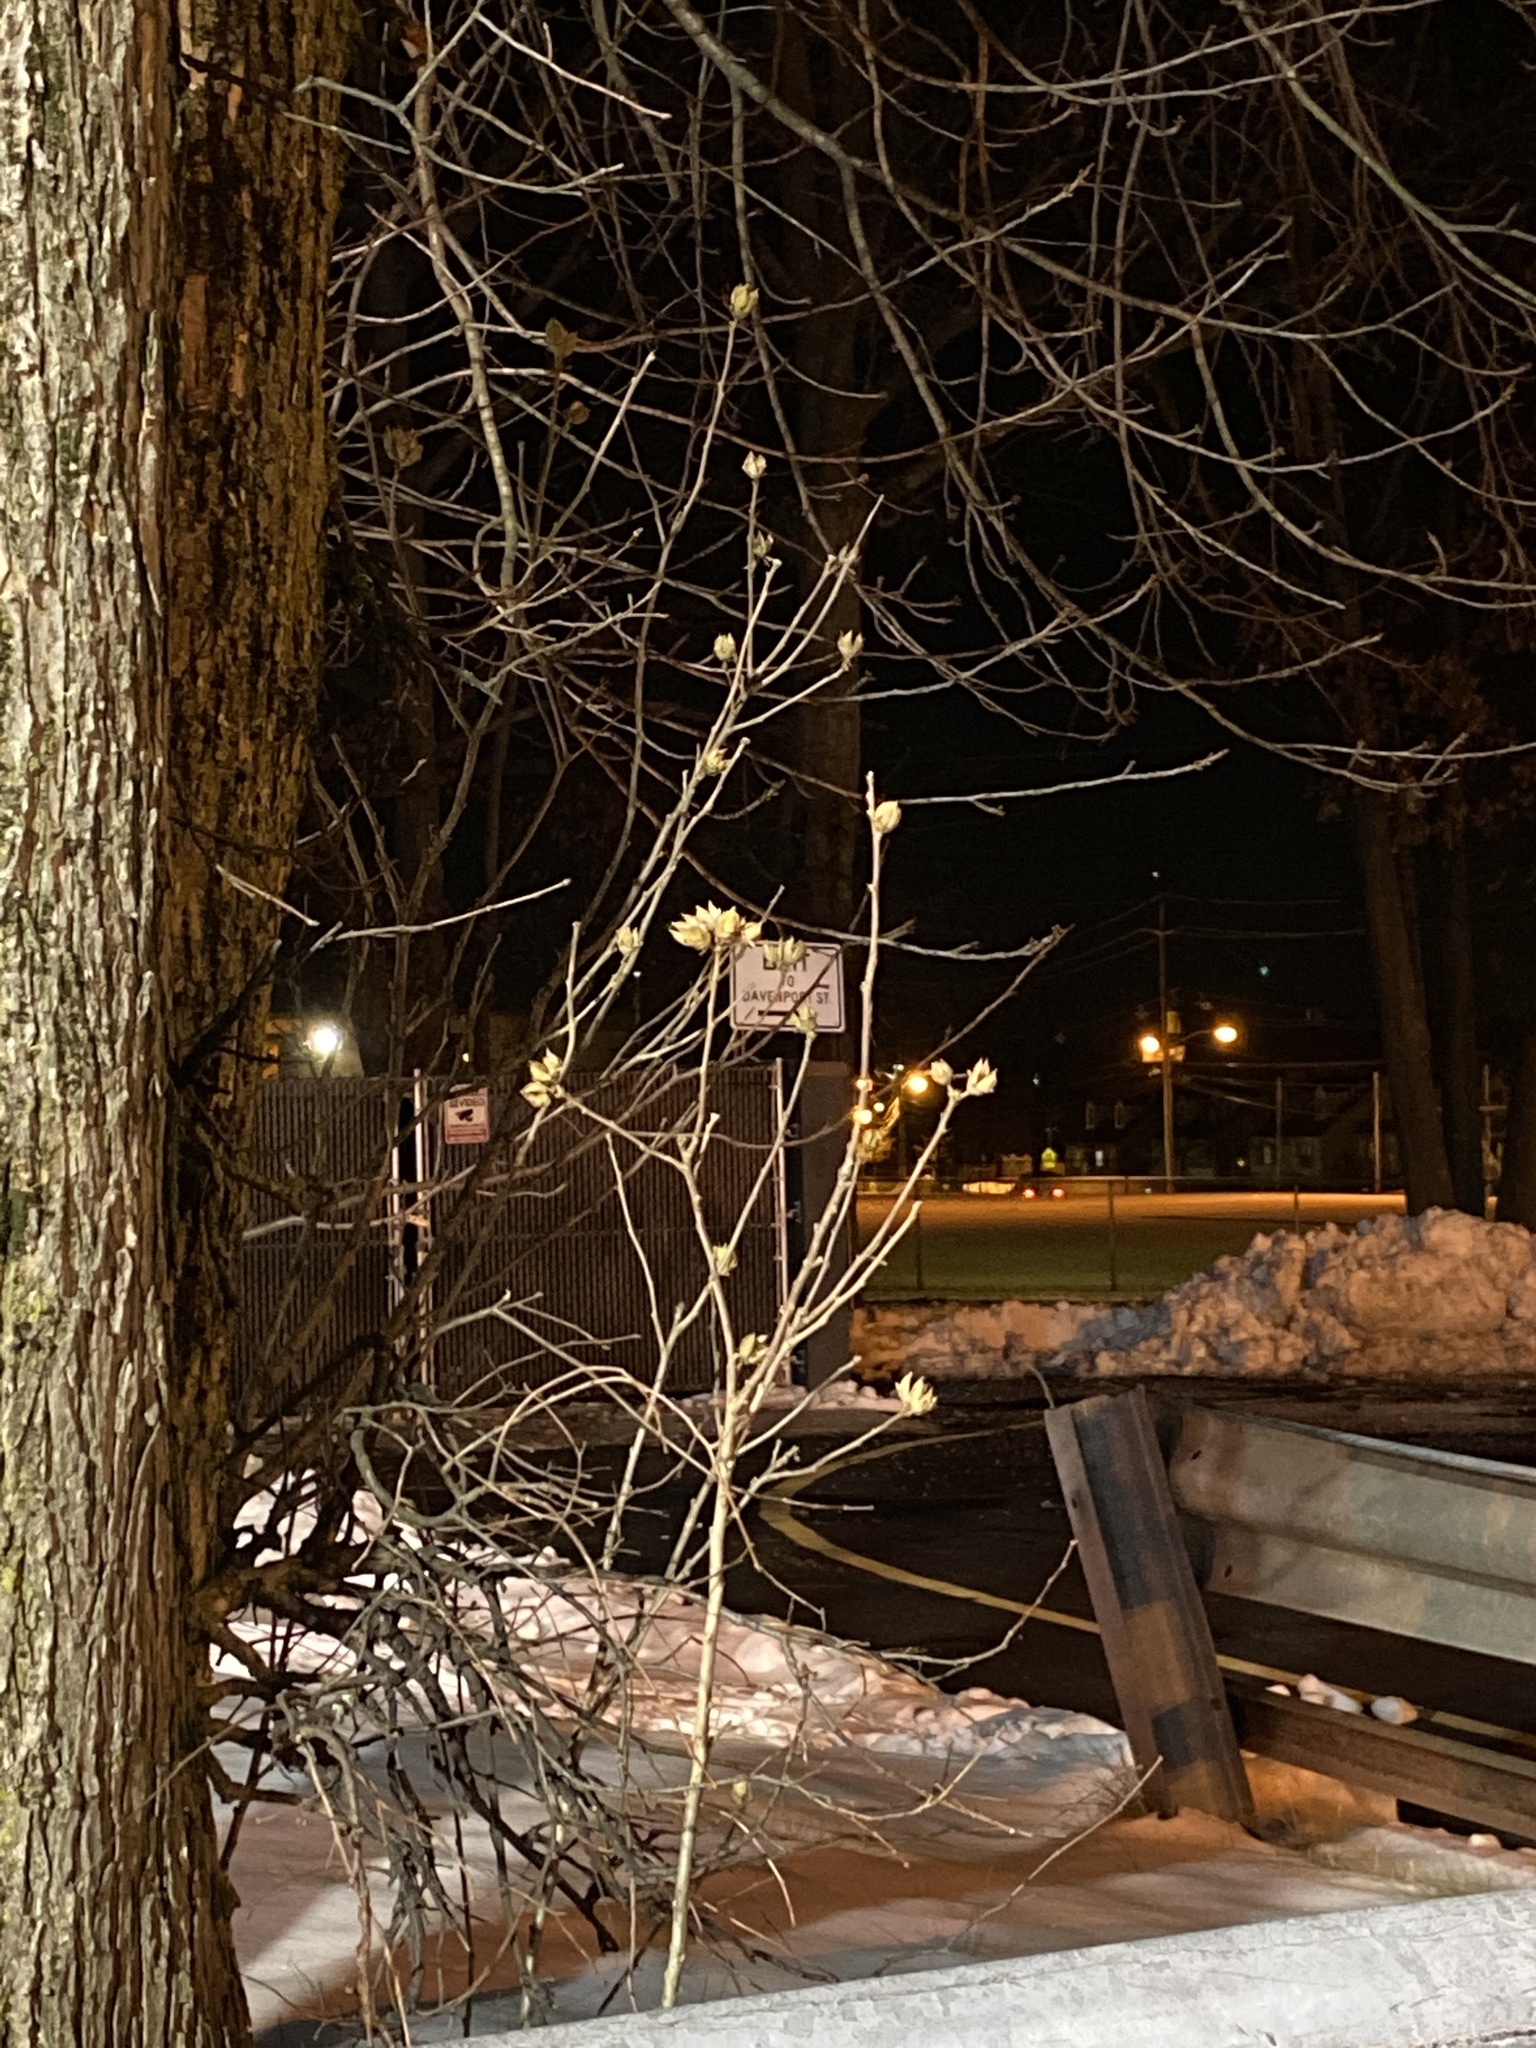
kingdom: Plantae
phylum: Tracheophyta
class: Magnoliopsida
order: Malvales
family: Malvaceae
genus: Hibiscus
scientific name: Hibiscus syriacus
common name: Syrian ketmia
